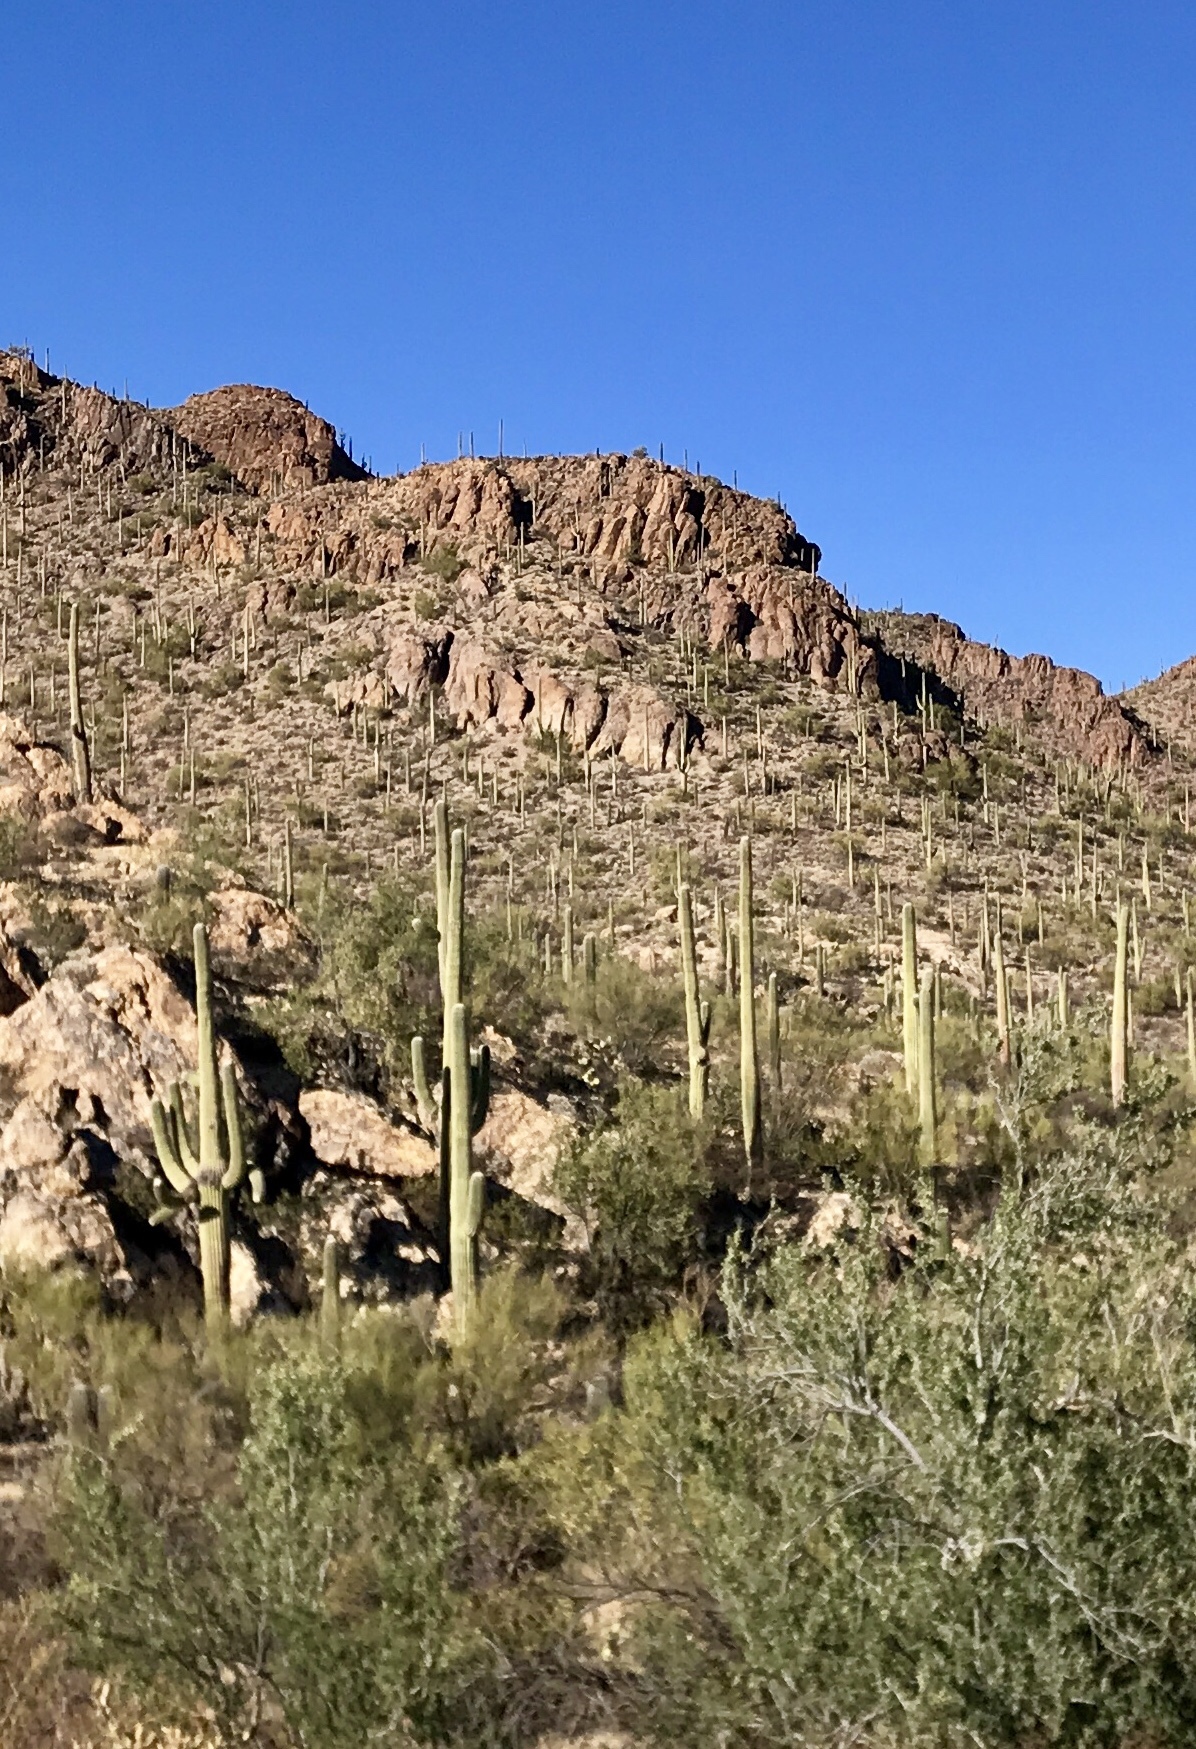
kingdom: Plantae
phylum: Tracheophyta
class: Magnoliopsida
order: Caryophyllales
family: Cactaceae
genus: Carnegiea
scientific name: Carnegiea gigantea
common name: Saguaro
